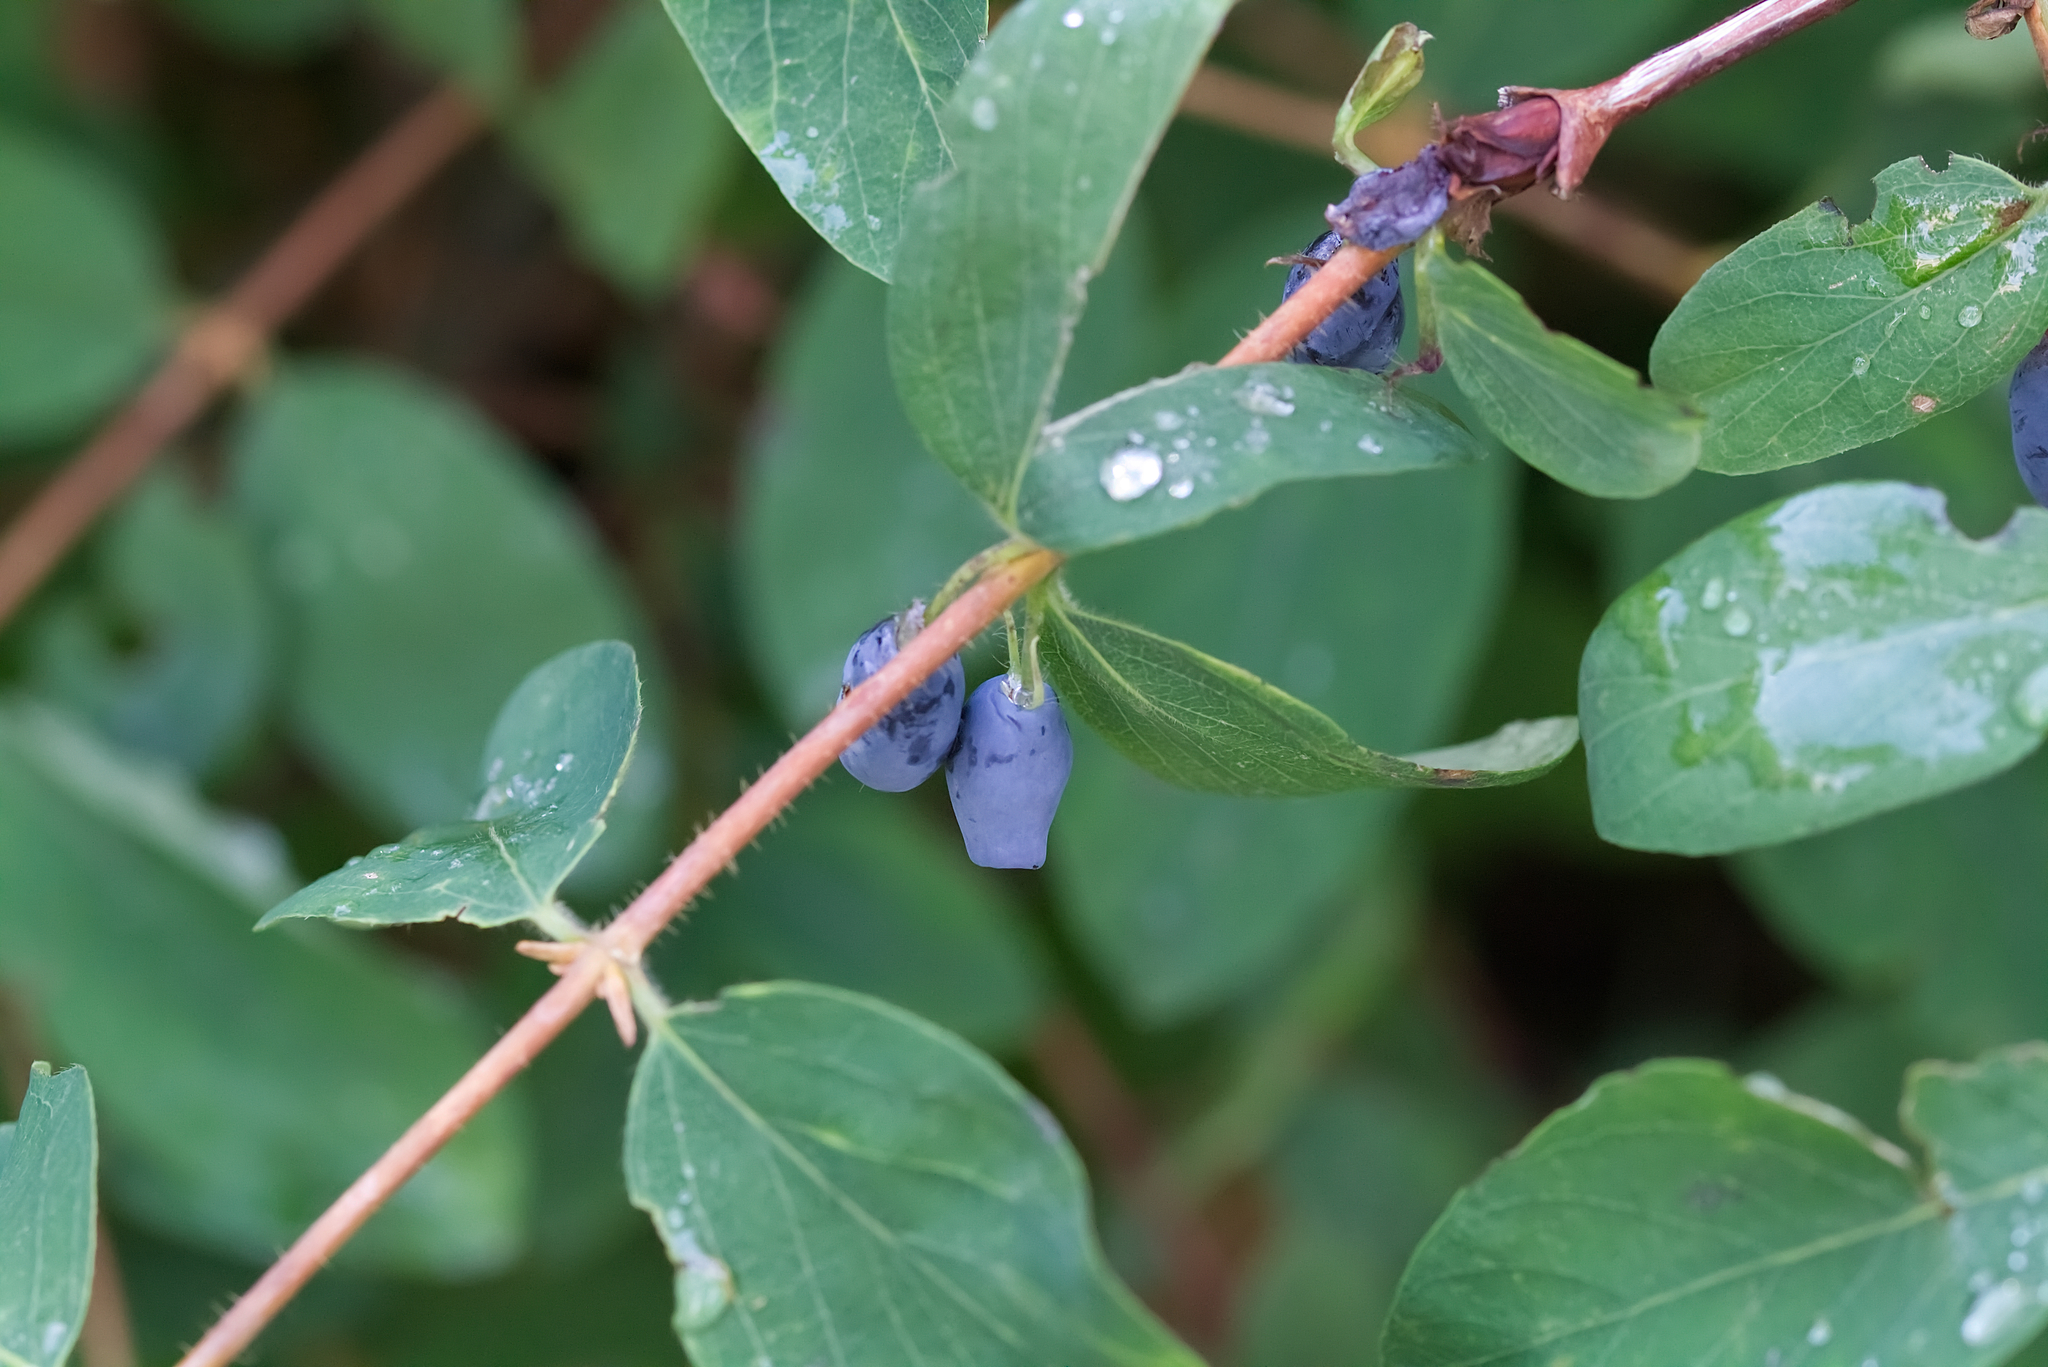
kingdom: Plantae
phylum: Tracheophyta
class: Magnoliopsida
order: Dipsacales
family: Caprifoliaceae
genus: Lonicera
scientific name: Lonicera caerulea
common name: Blue honeysuckle
